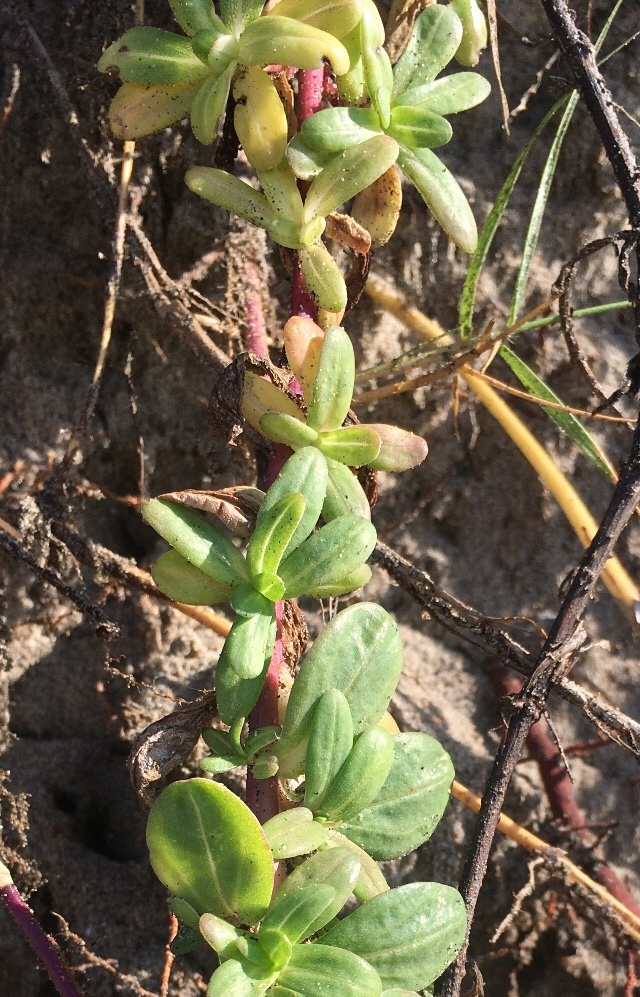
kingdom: Plantae
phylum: Tracheophyta
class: Magnoliopsida
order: Asterales
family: Asteraceae
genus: Pectis
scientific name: Pectis multiflosculosa
